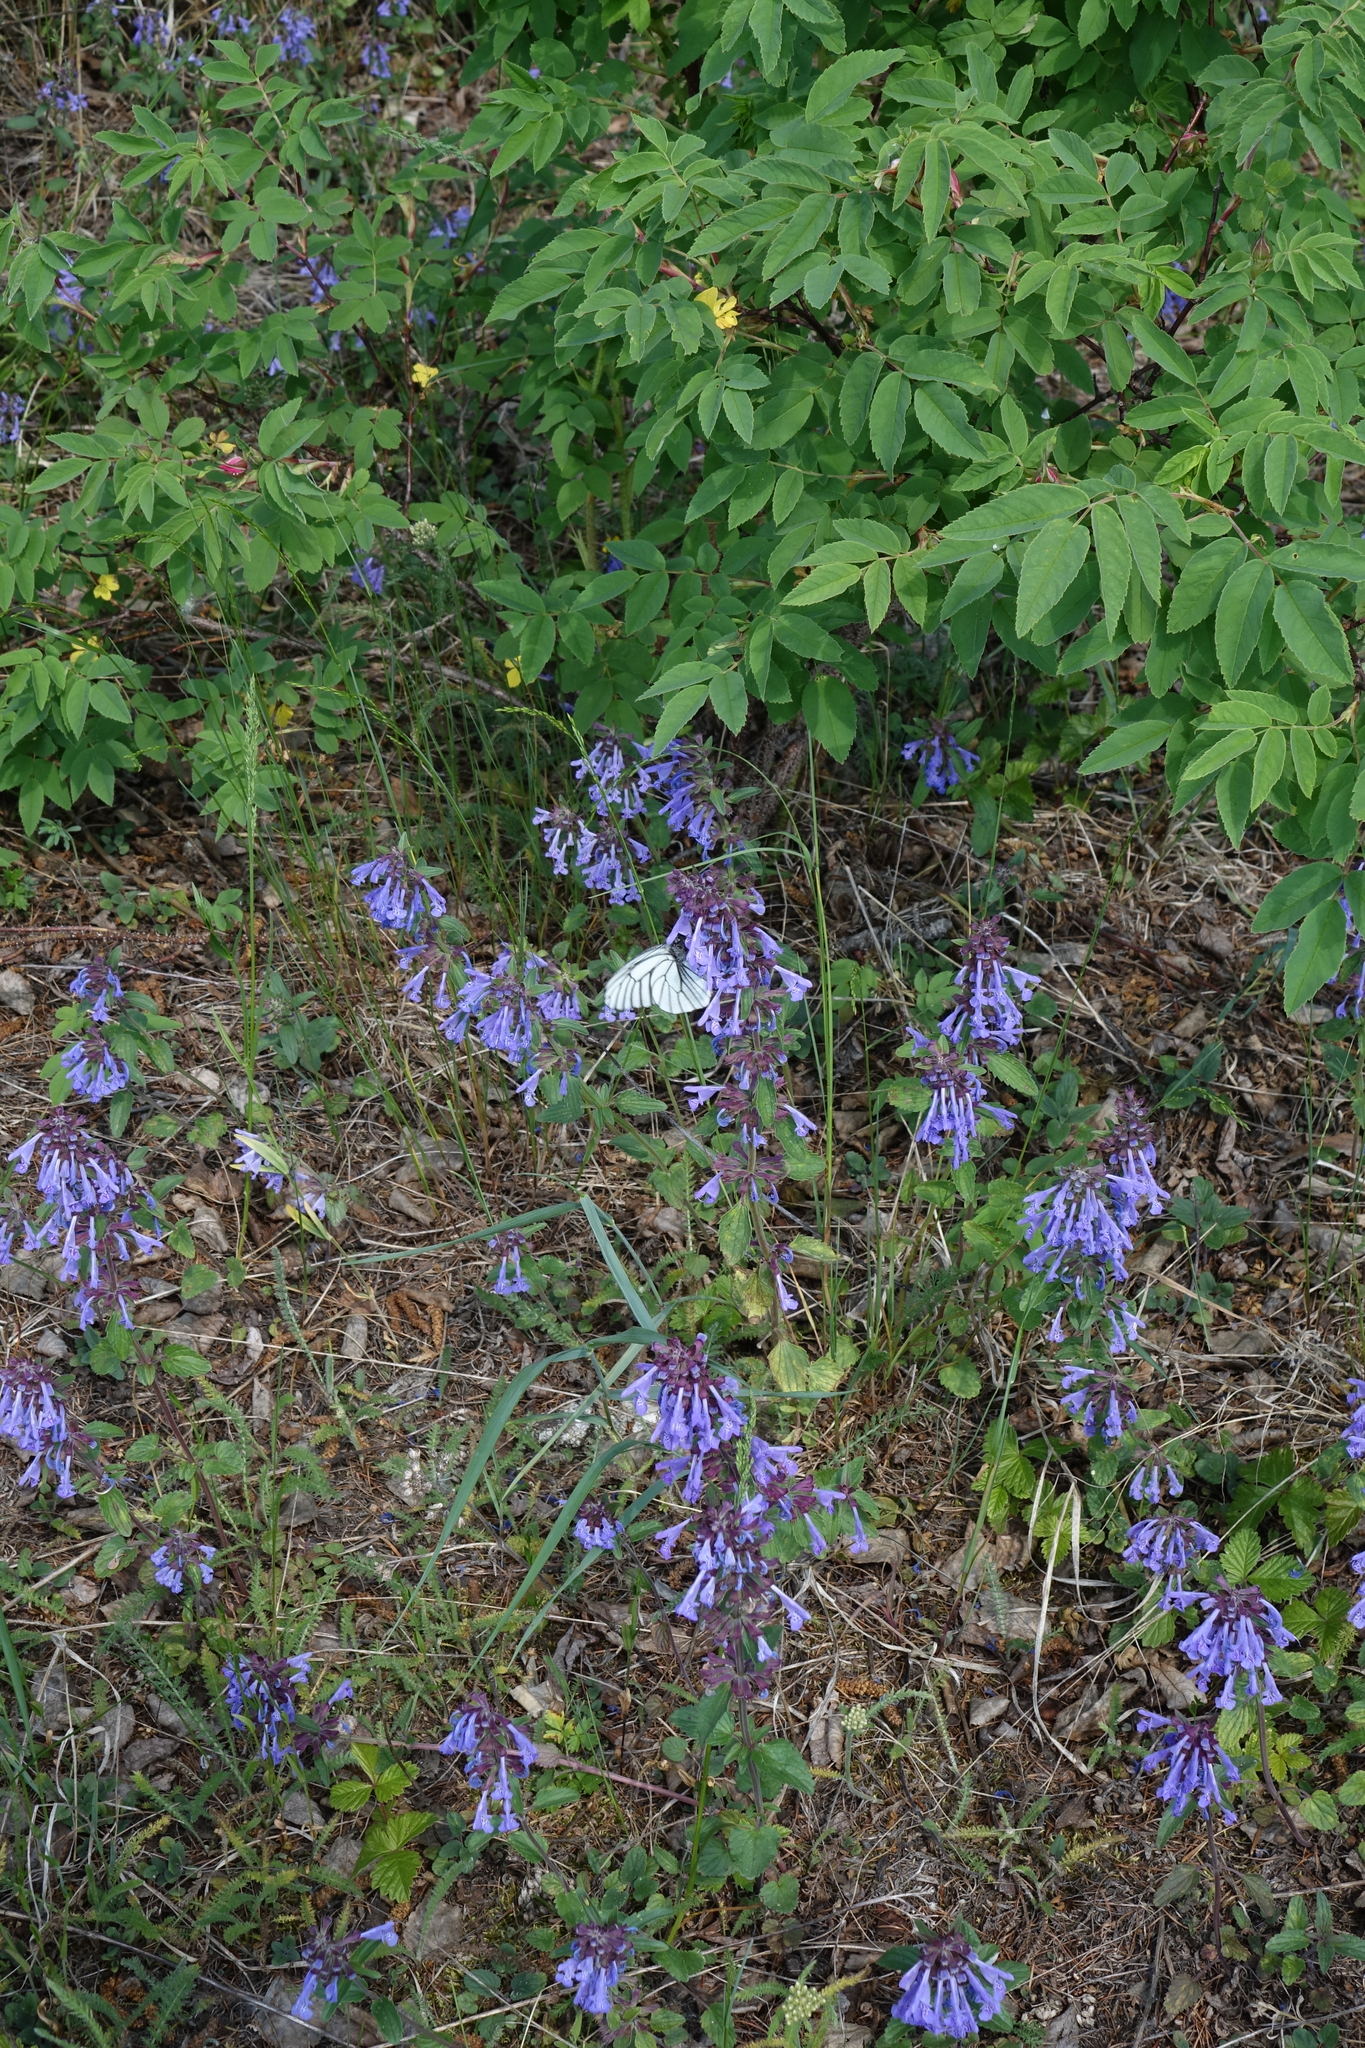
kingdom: Plantae
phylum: Tracheophyta
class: Magnoliopsida
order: Lamiales
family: Lamiaceae
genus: Dracocephalum
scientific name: Dracocephalum nutans
